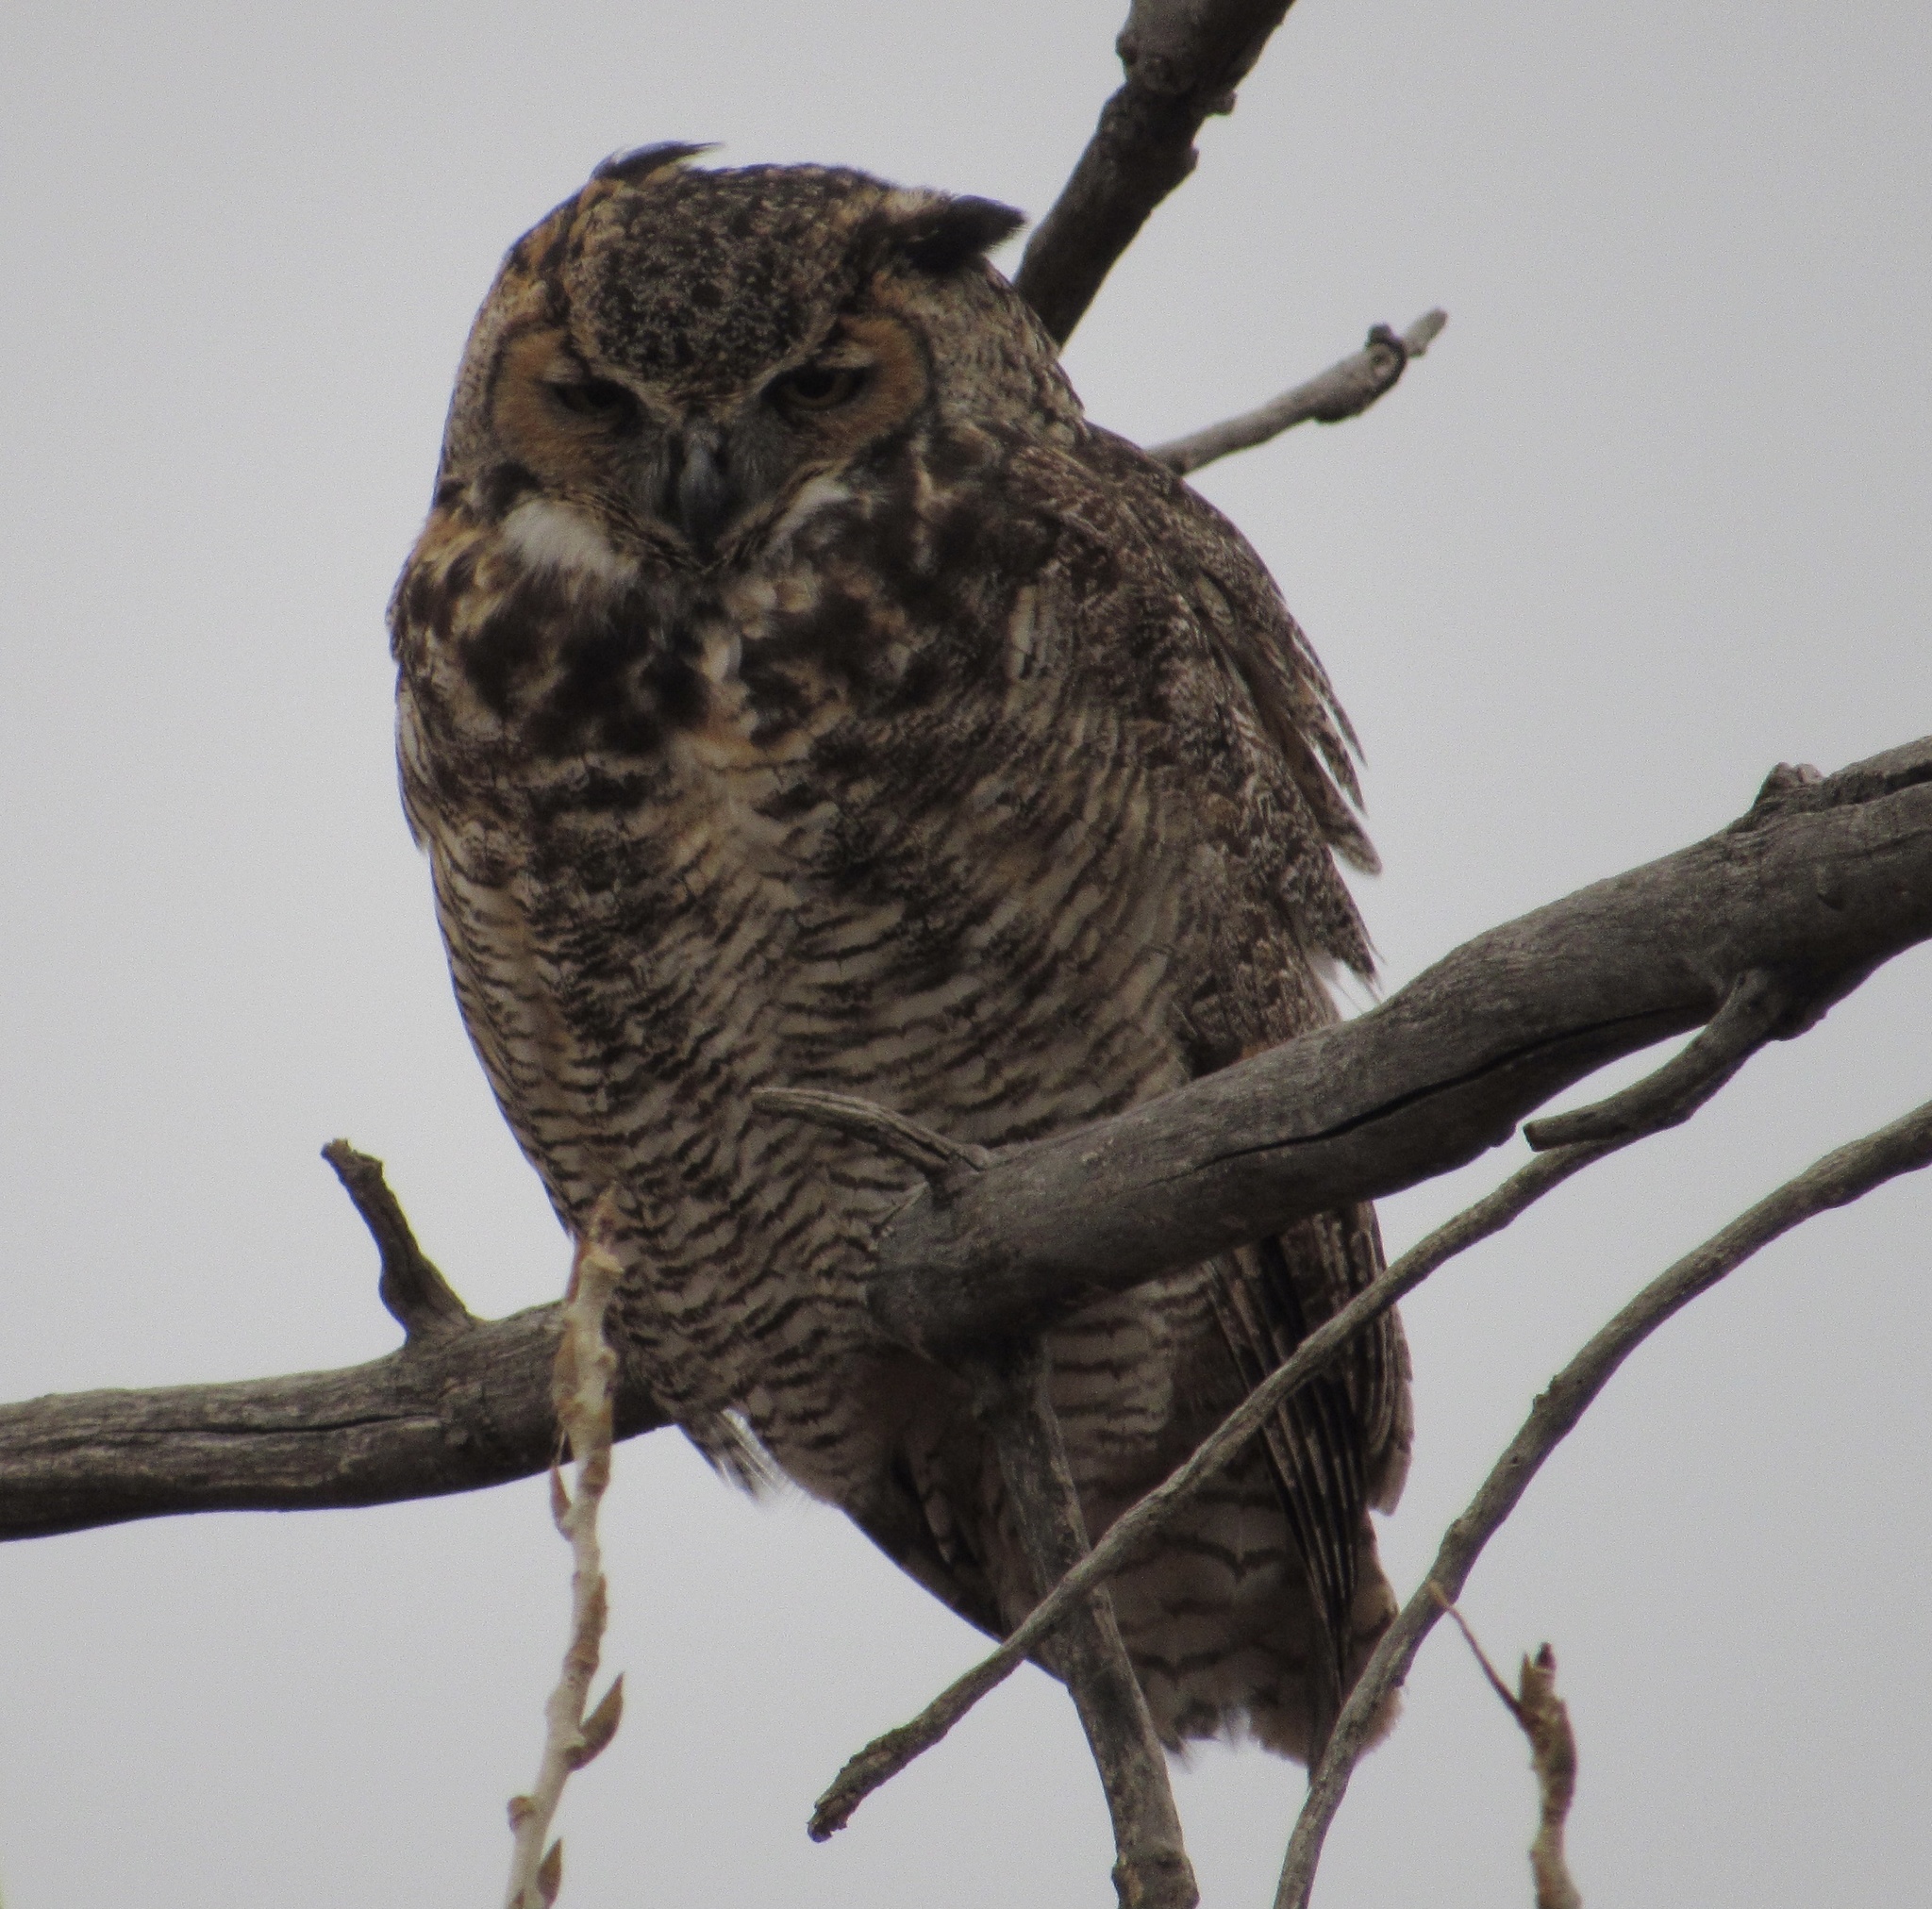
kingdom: Animalia
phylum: Chordata
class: Aves
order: Strigiformes
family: Strigidae
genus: Bubo
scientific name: Bubo virginianus
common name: Great horned owl
